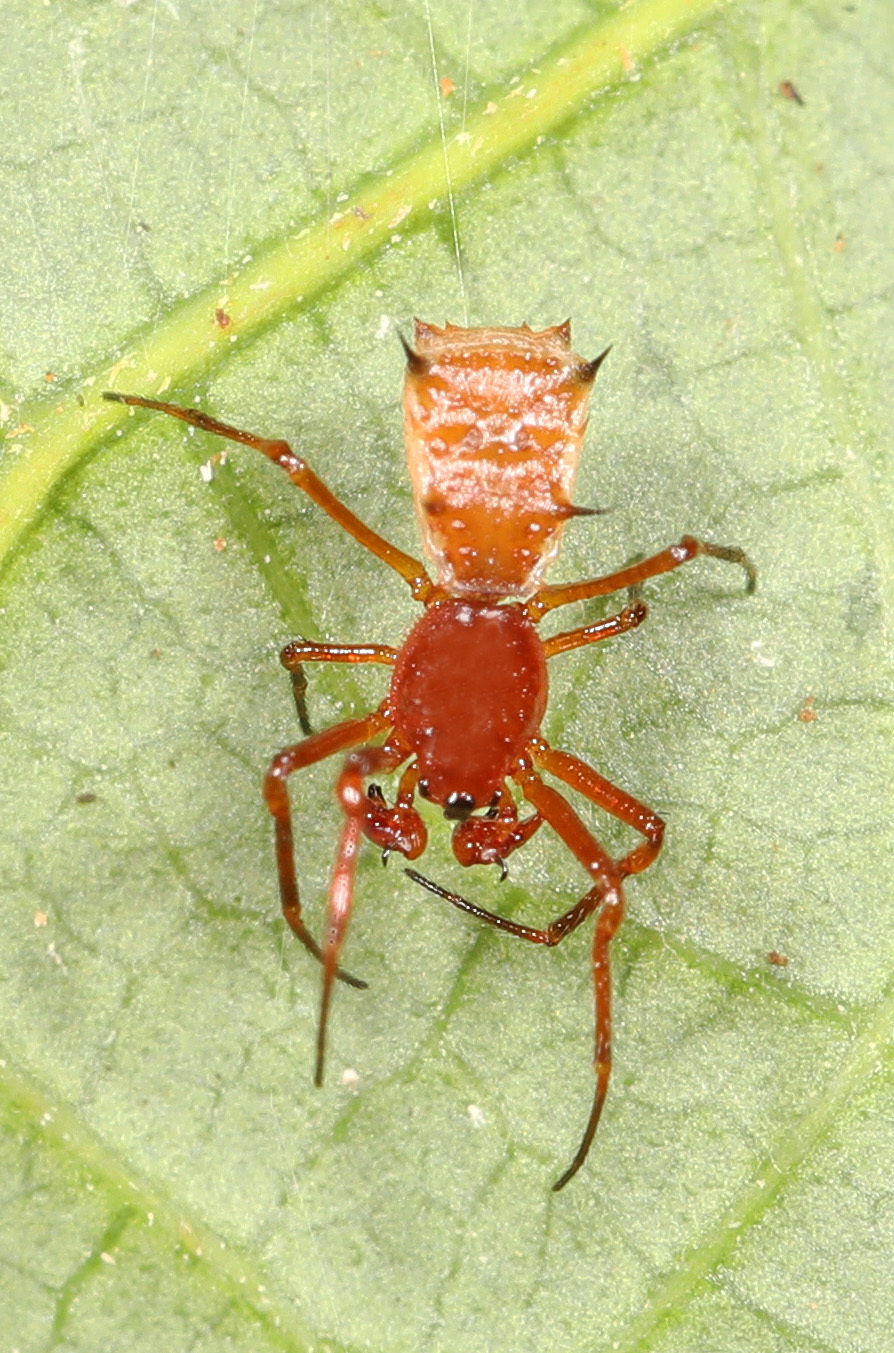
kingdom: Animalia
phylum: Arthropoda
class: Arachnida
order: Araneae
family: Araneidae
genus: Micrathena
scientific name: Micrathena woytkowskii
